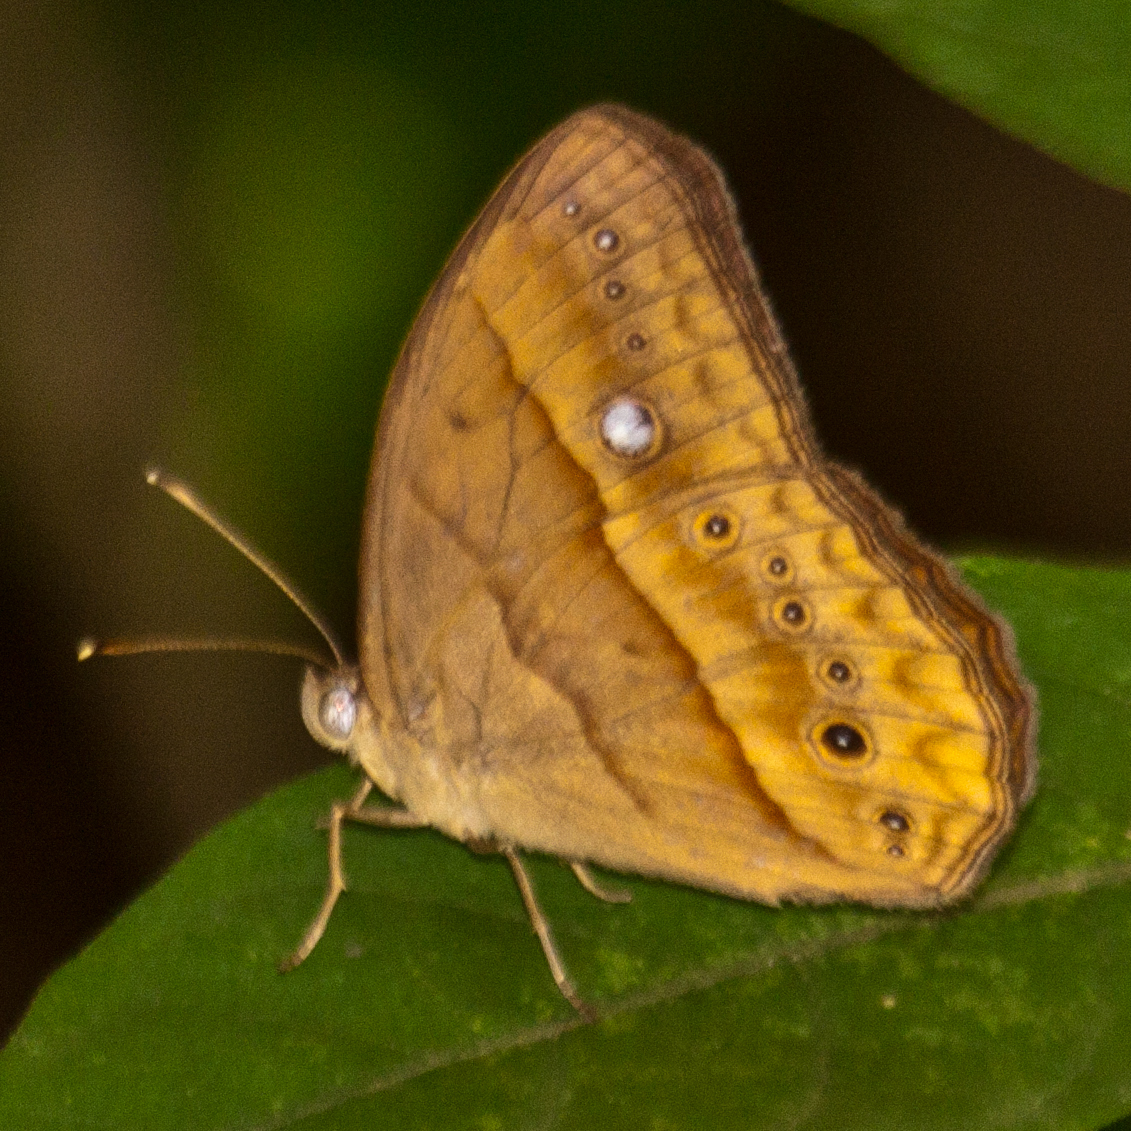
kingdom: Animalia
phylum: Arthropoda
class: Insecta
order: Lepidoptera
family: Nymphalidae
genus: Mycalesis
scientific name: Mycalesis mnasicles
